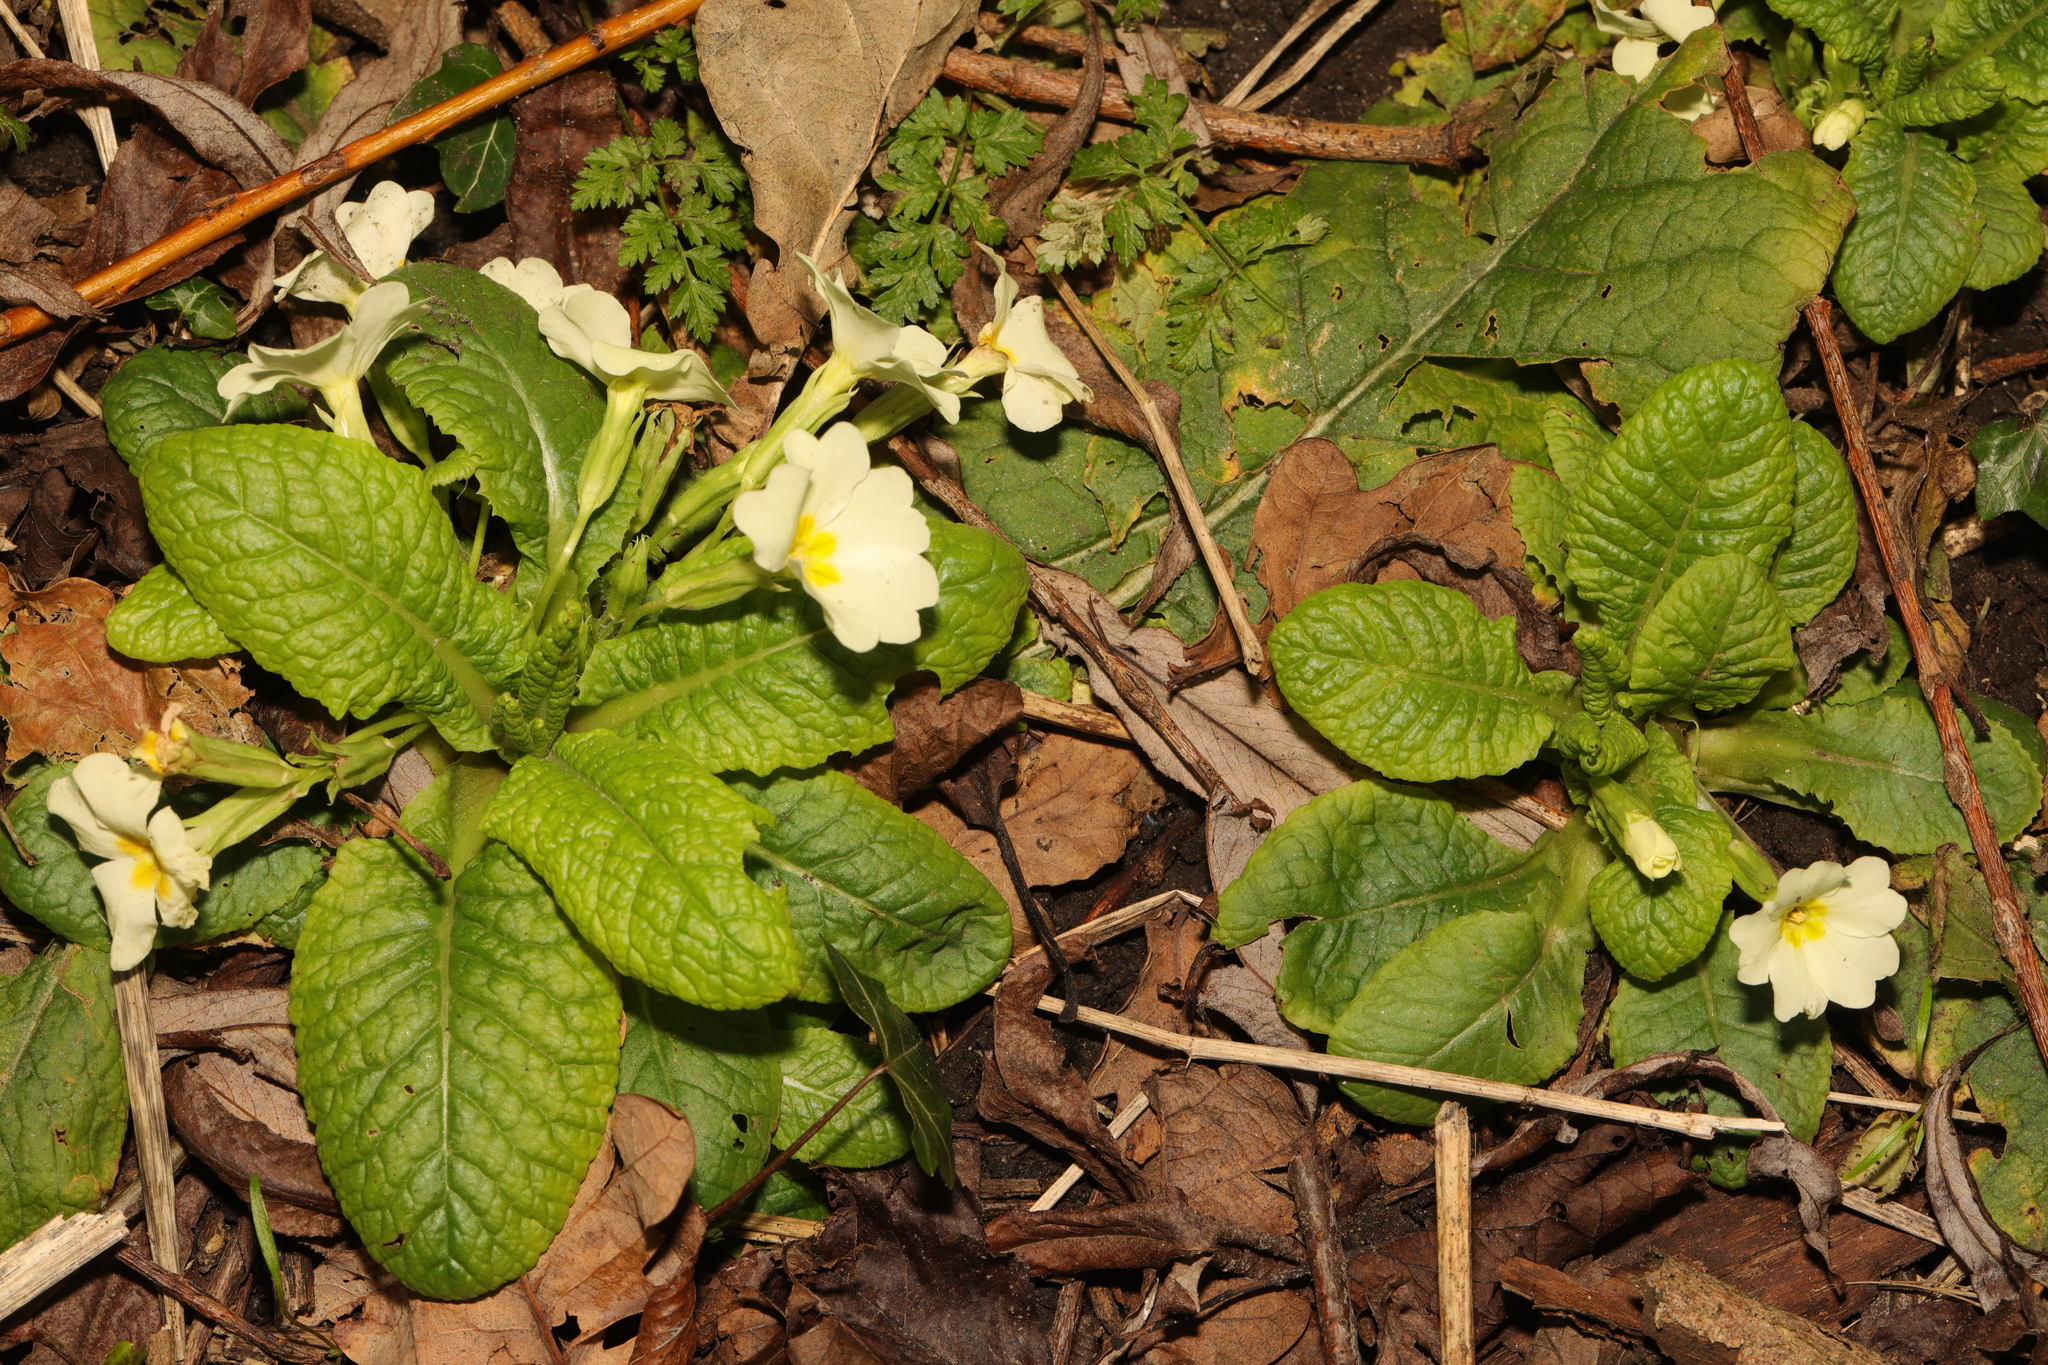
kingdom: Plantae
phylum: Tracheophyta
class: Magnoliopsida
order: Ericales
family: Primulaceae
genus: Primula
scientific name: Primula vulgaris
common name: Primrose
